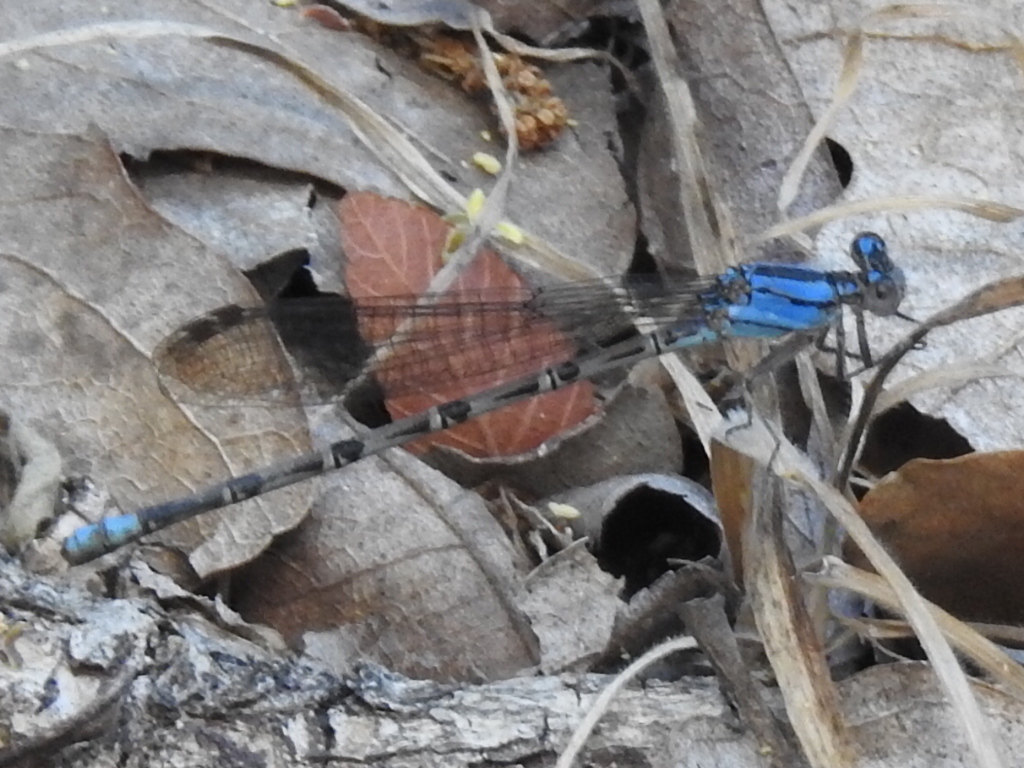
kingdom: Animalia
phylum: Arthropoda
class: Insecta
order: Odonata
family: Coenagrionidae
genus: Argia
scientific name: Argia funebris
